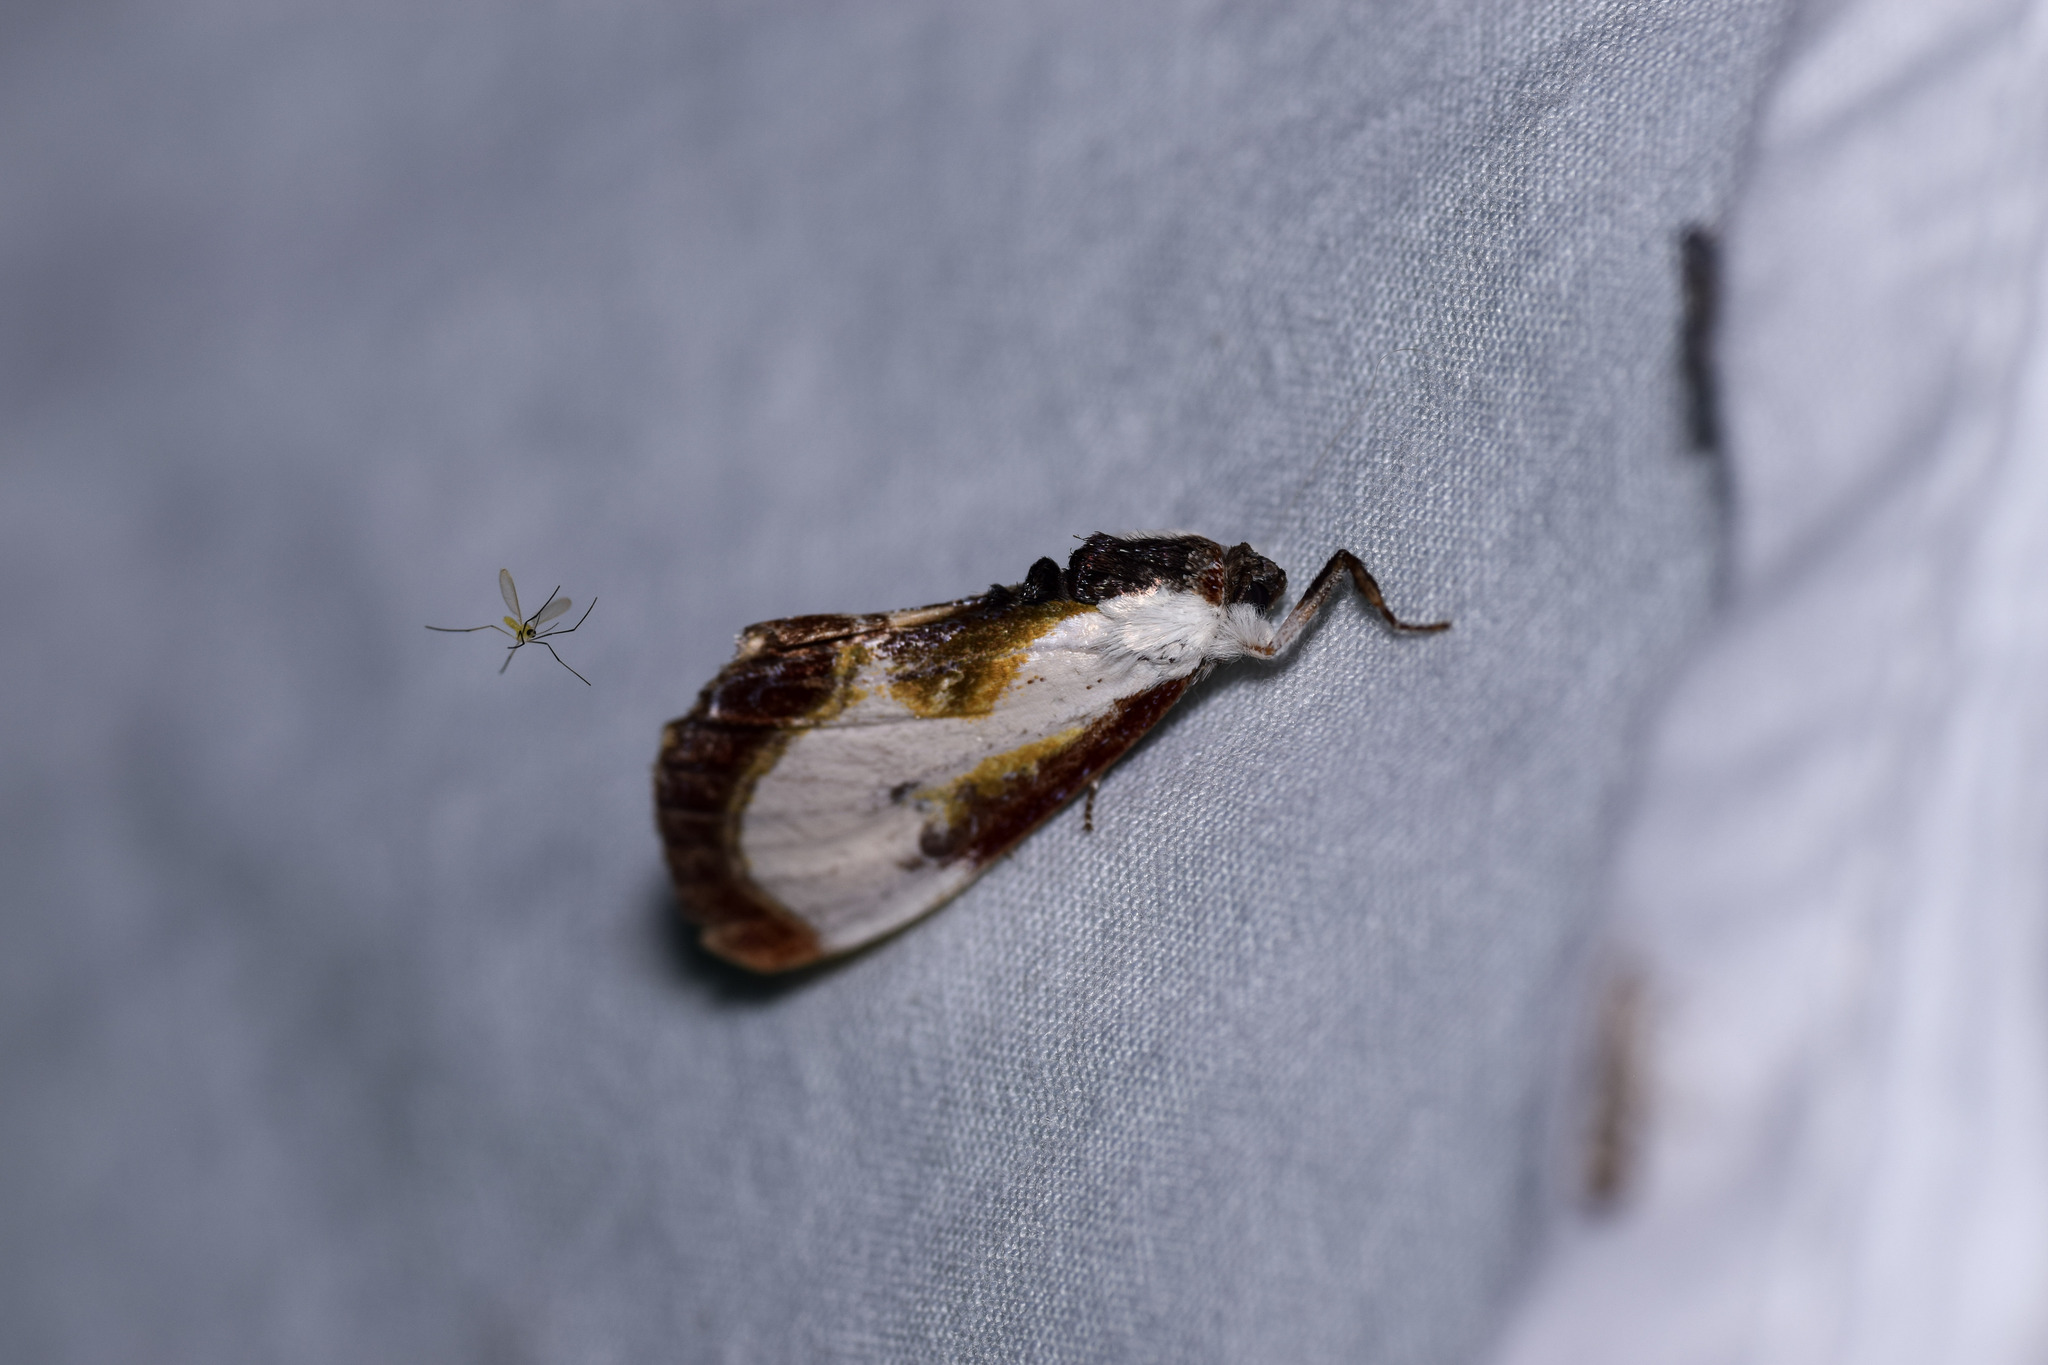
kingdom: Animalia
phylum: Arthropoda
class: Insecta
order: Lepidoptera
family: Noctuidae
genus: Eudryas
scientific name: Eudryas grata
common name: Beautiful wood-nymph
